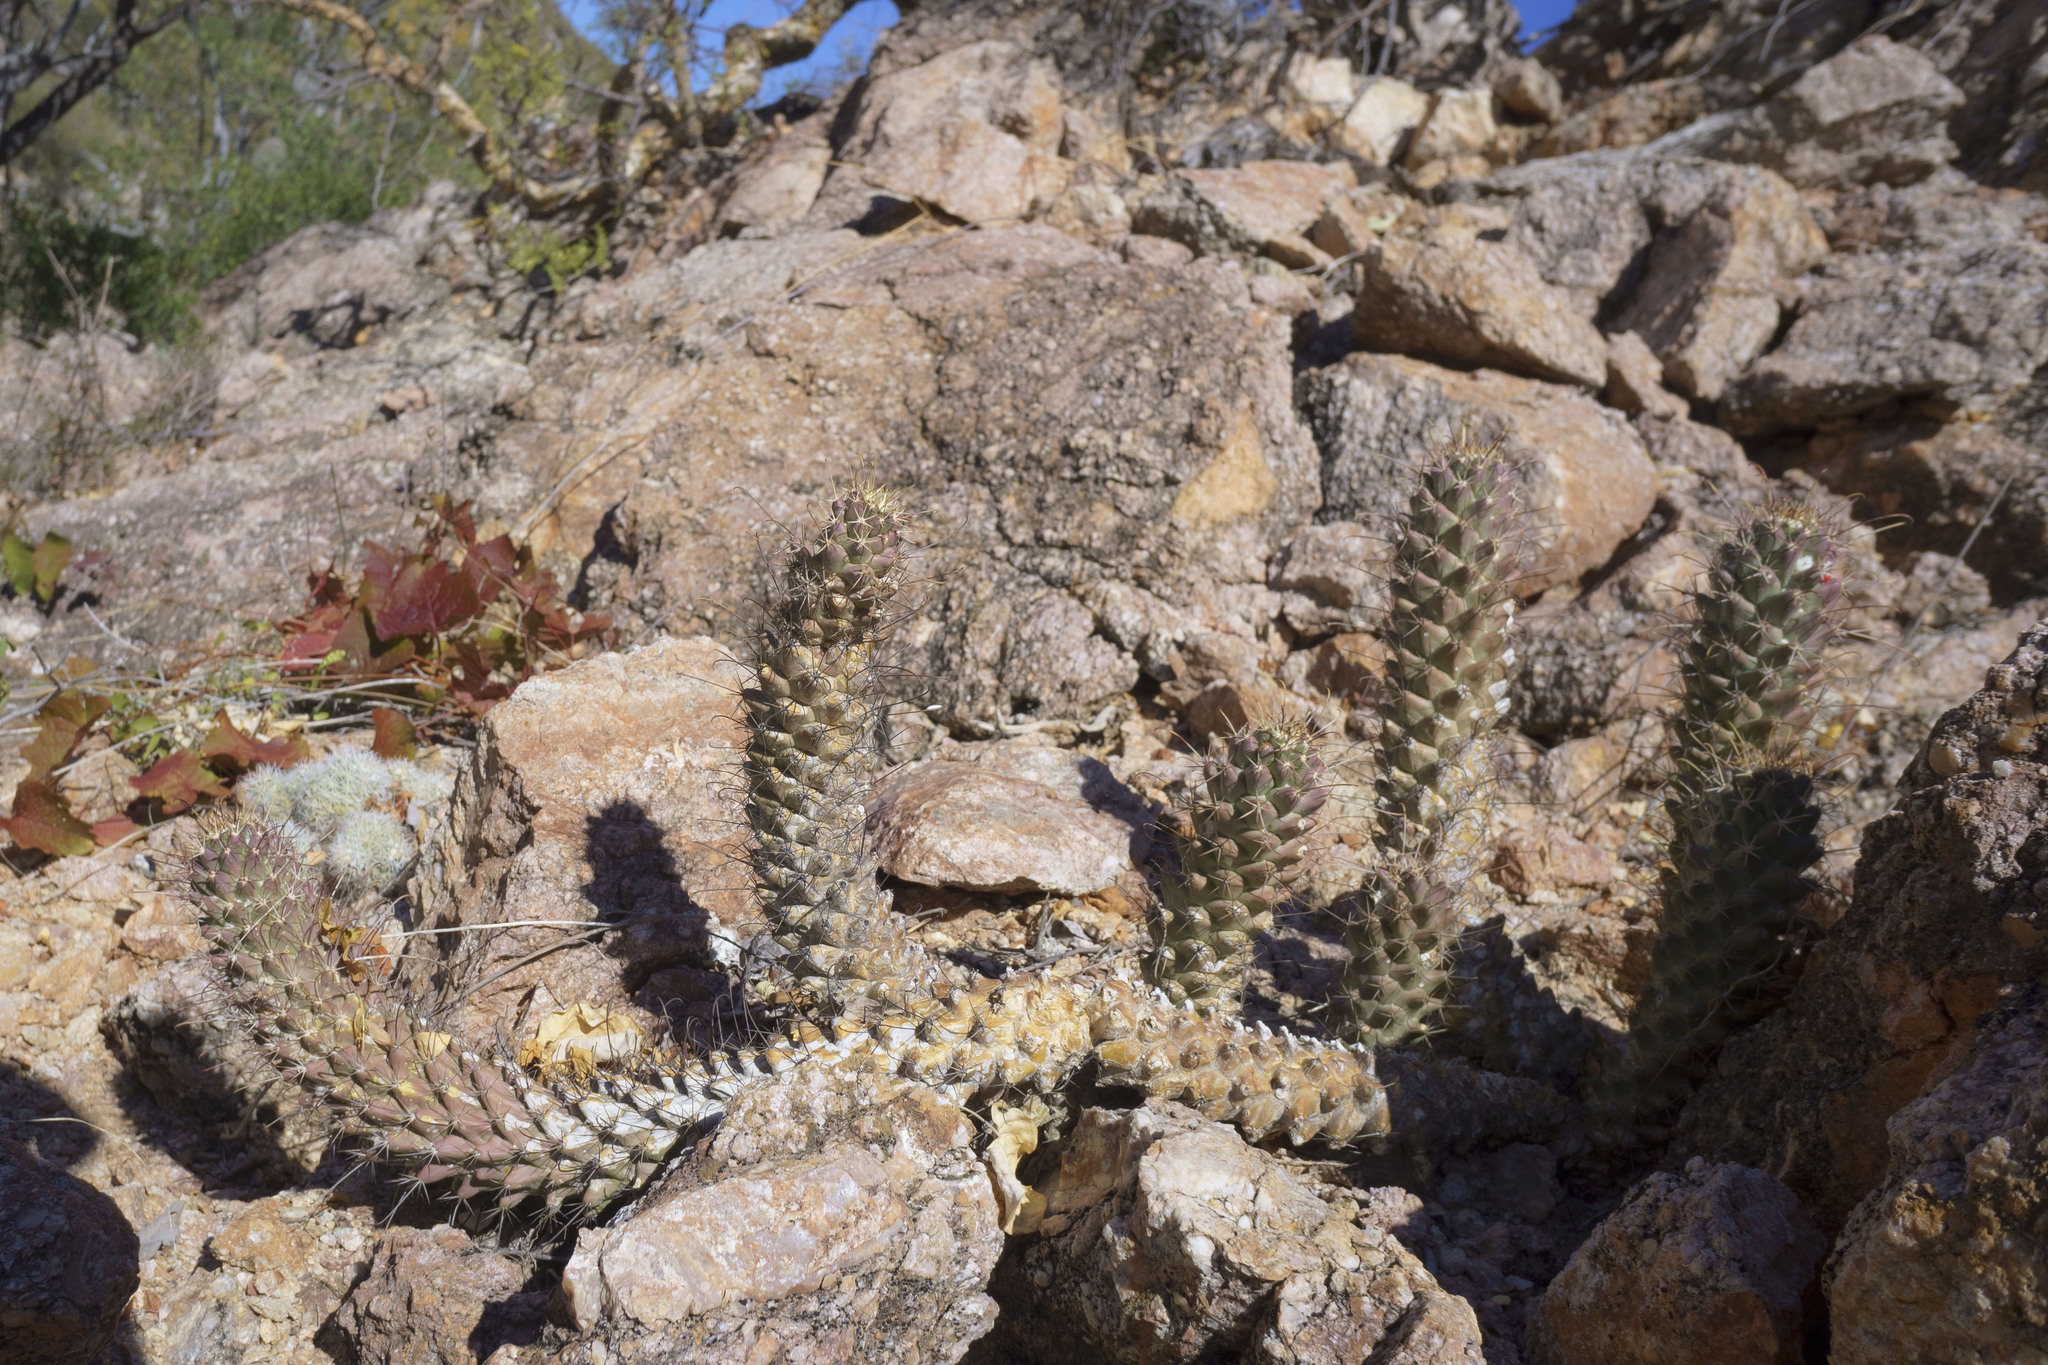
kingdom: Plantae
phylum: Tracheophyta
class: Magnoliopsida
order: Caryophyllales
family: Cactaceae
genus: Cochemiea
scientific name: Cochemiea poselgeri
